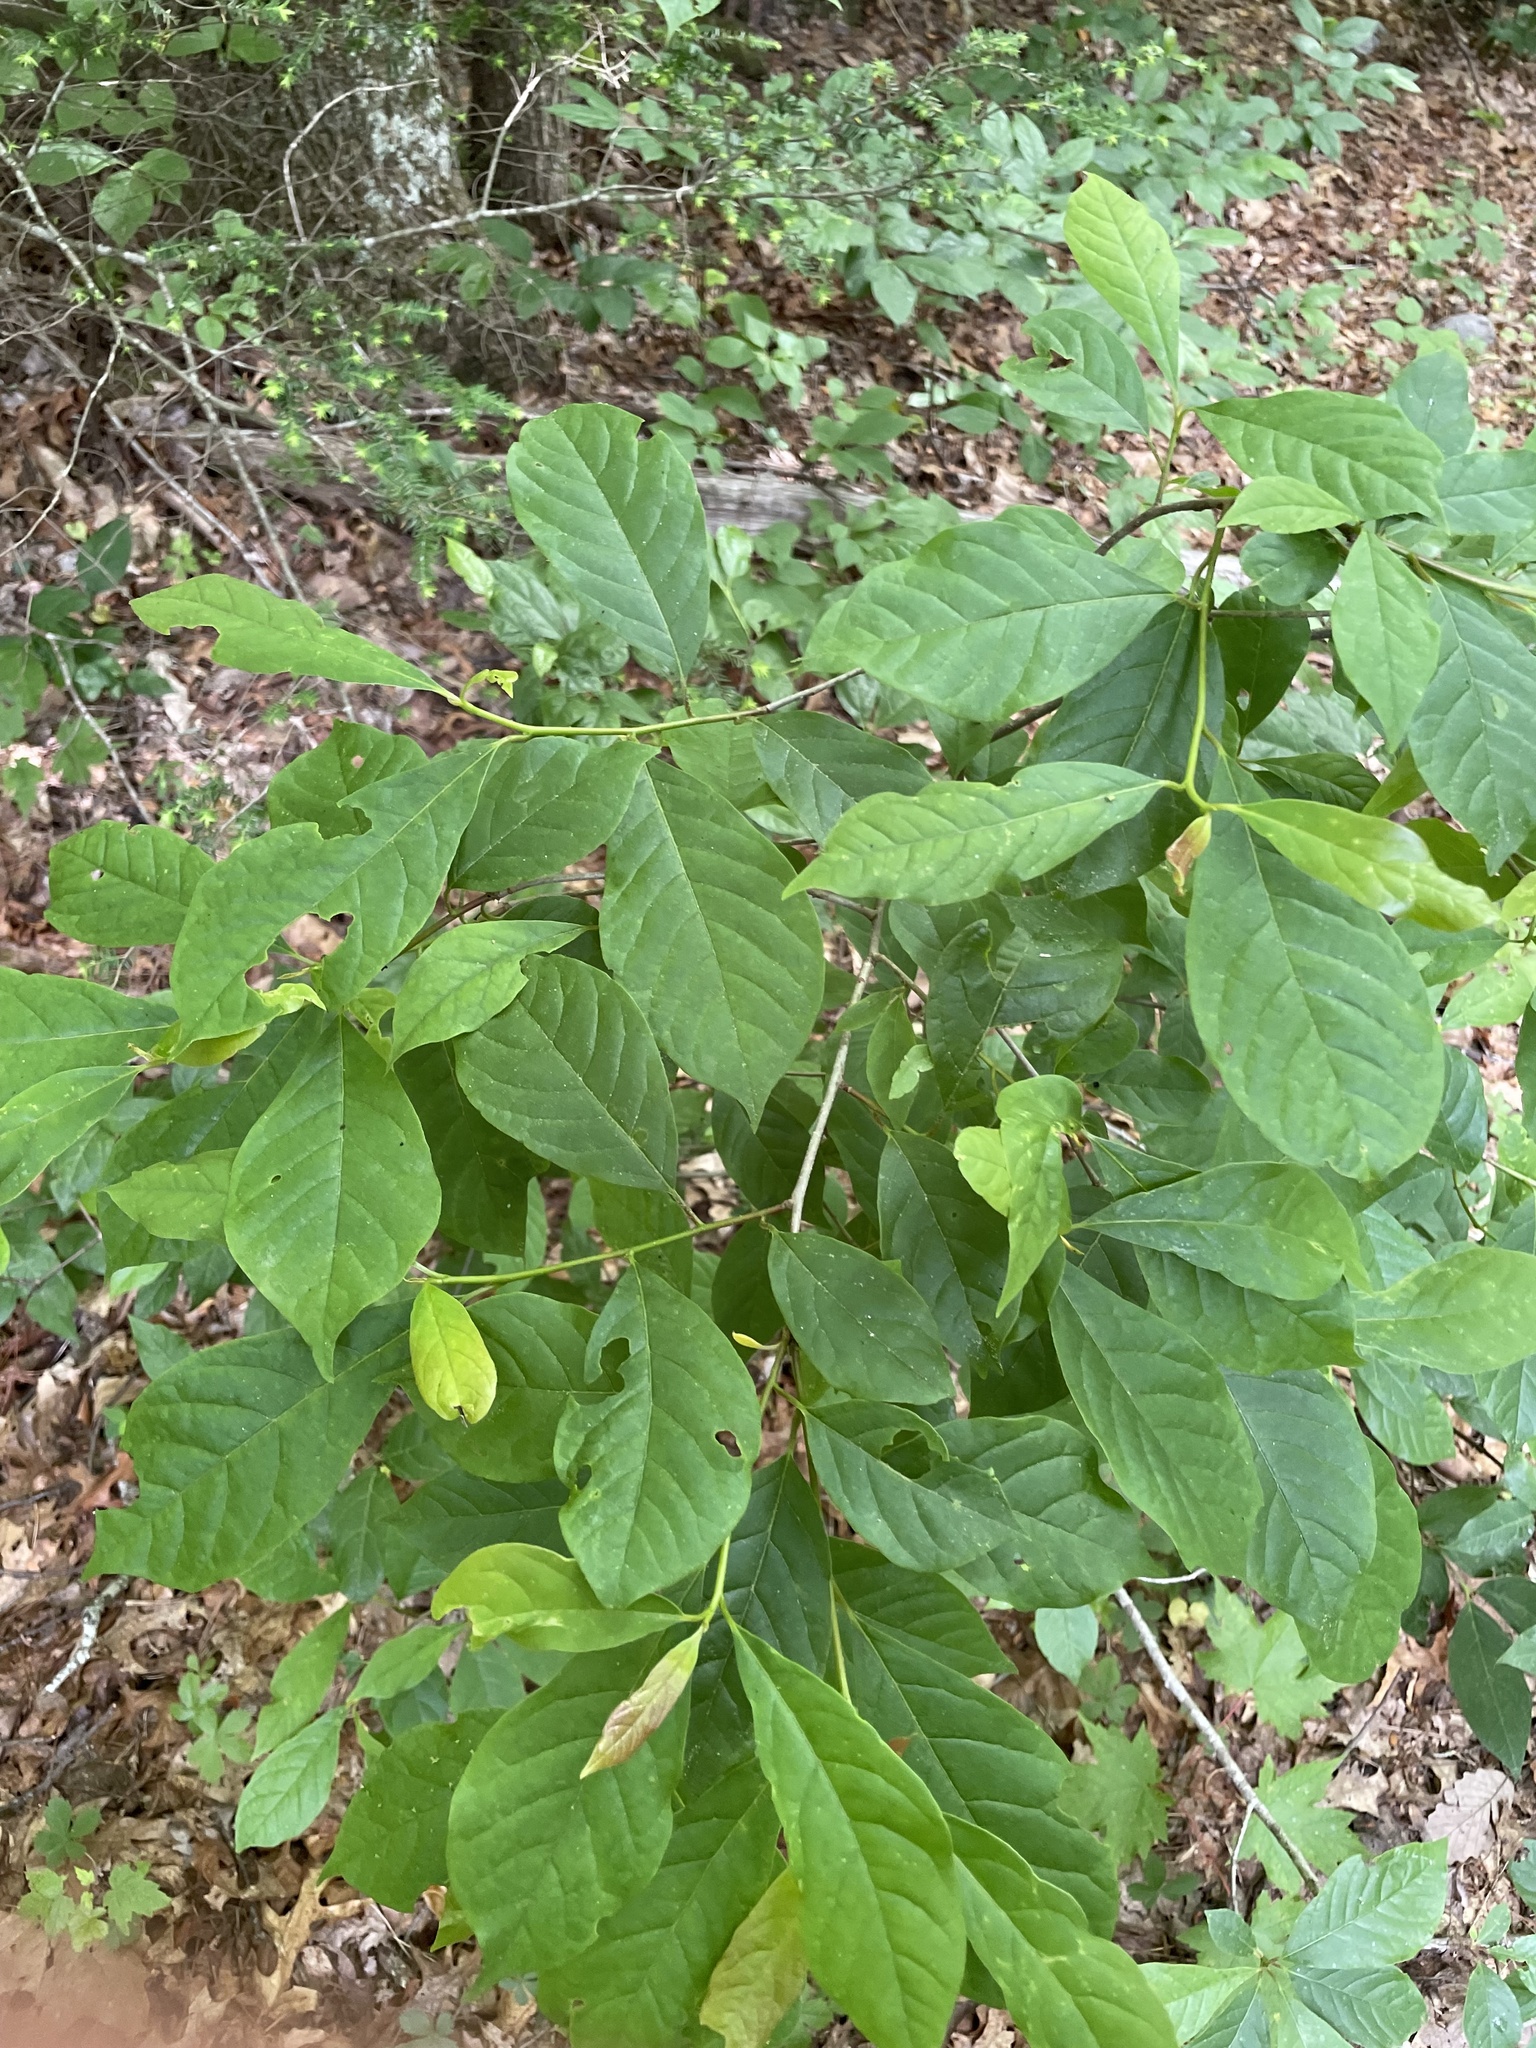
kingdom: Plantae
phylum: Tracheophyta
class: Magnoliopsida
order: Cornales
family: Nyssaceae
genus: Nyssa
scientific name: Nyssa sylvatica
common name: Black tupelo
